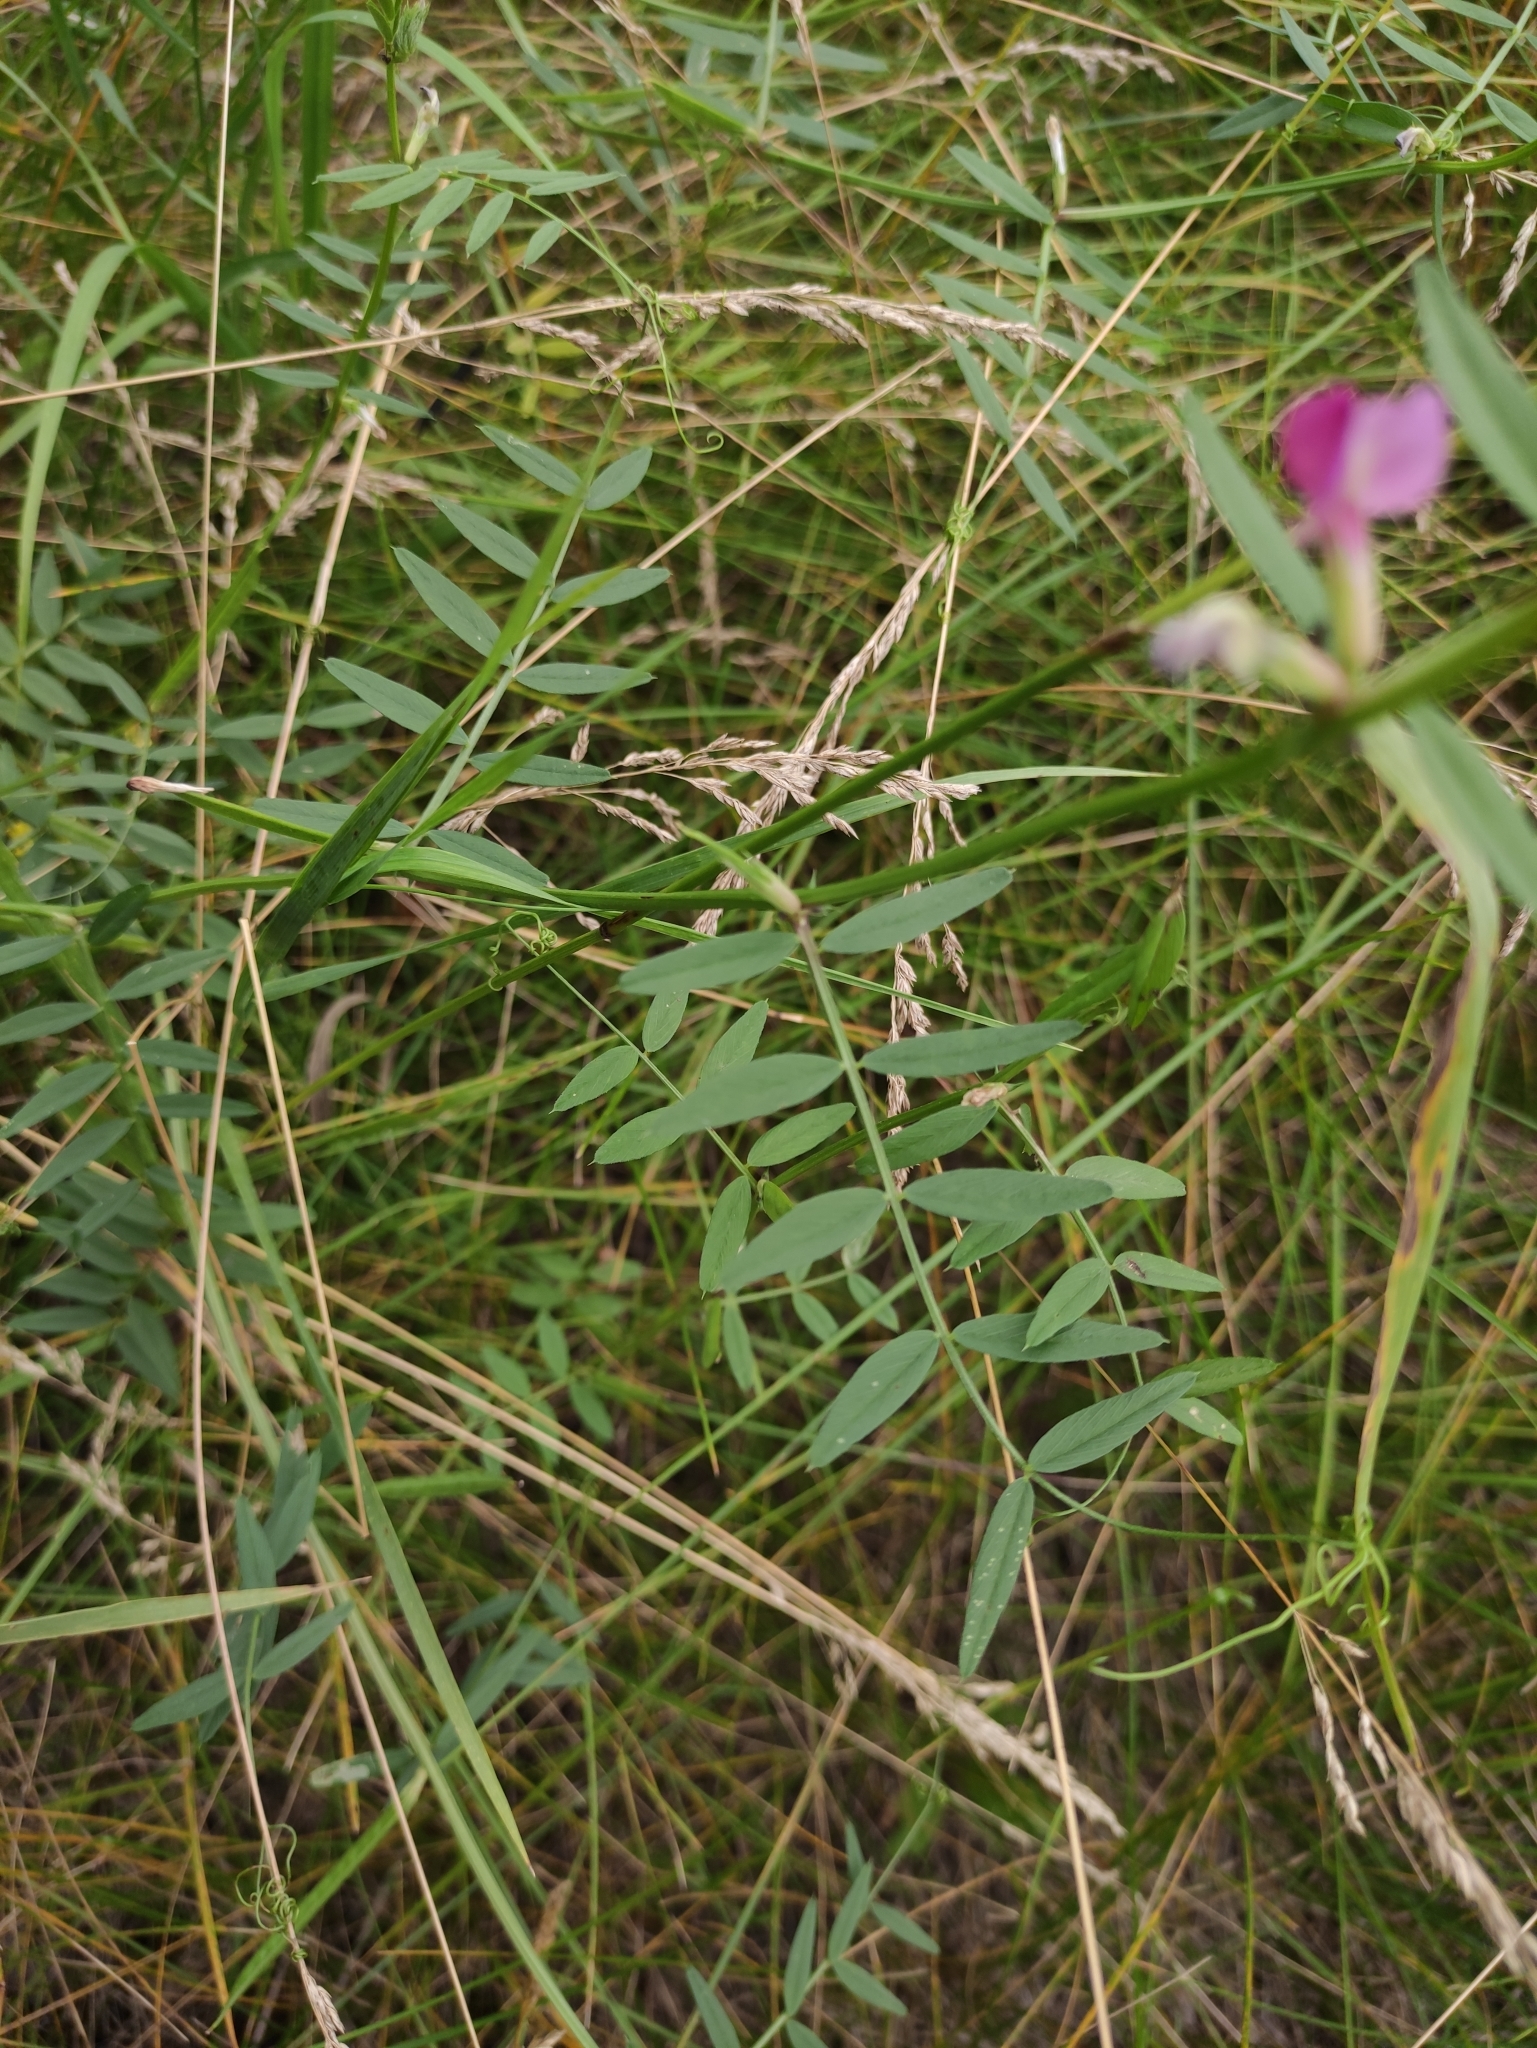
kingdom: Plantae
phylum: Tracheophyta
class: Magnoliopsida
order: Fabales
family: Fabaceae
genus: Vicia
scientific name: Vicia sativa
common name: Garden vetch
